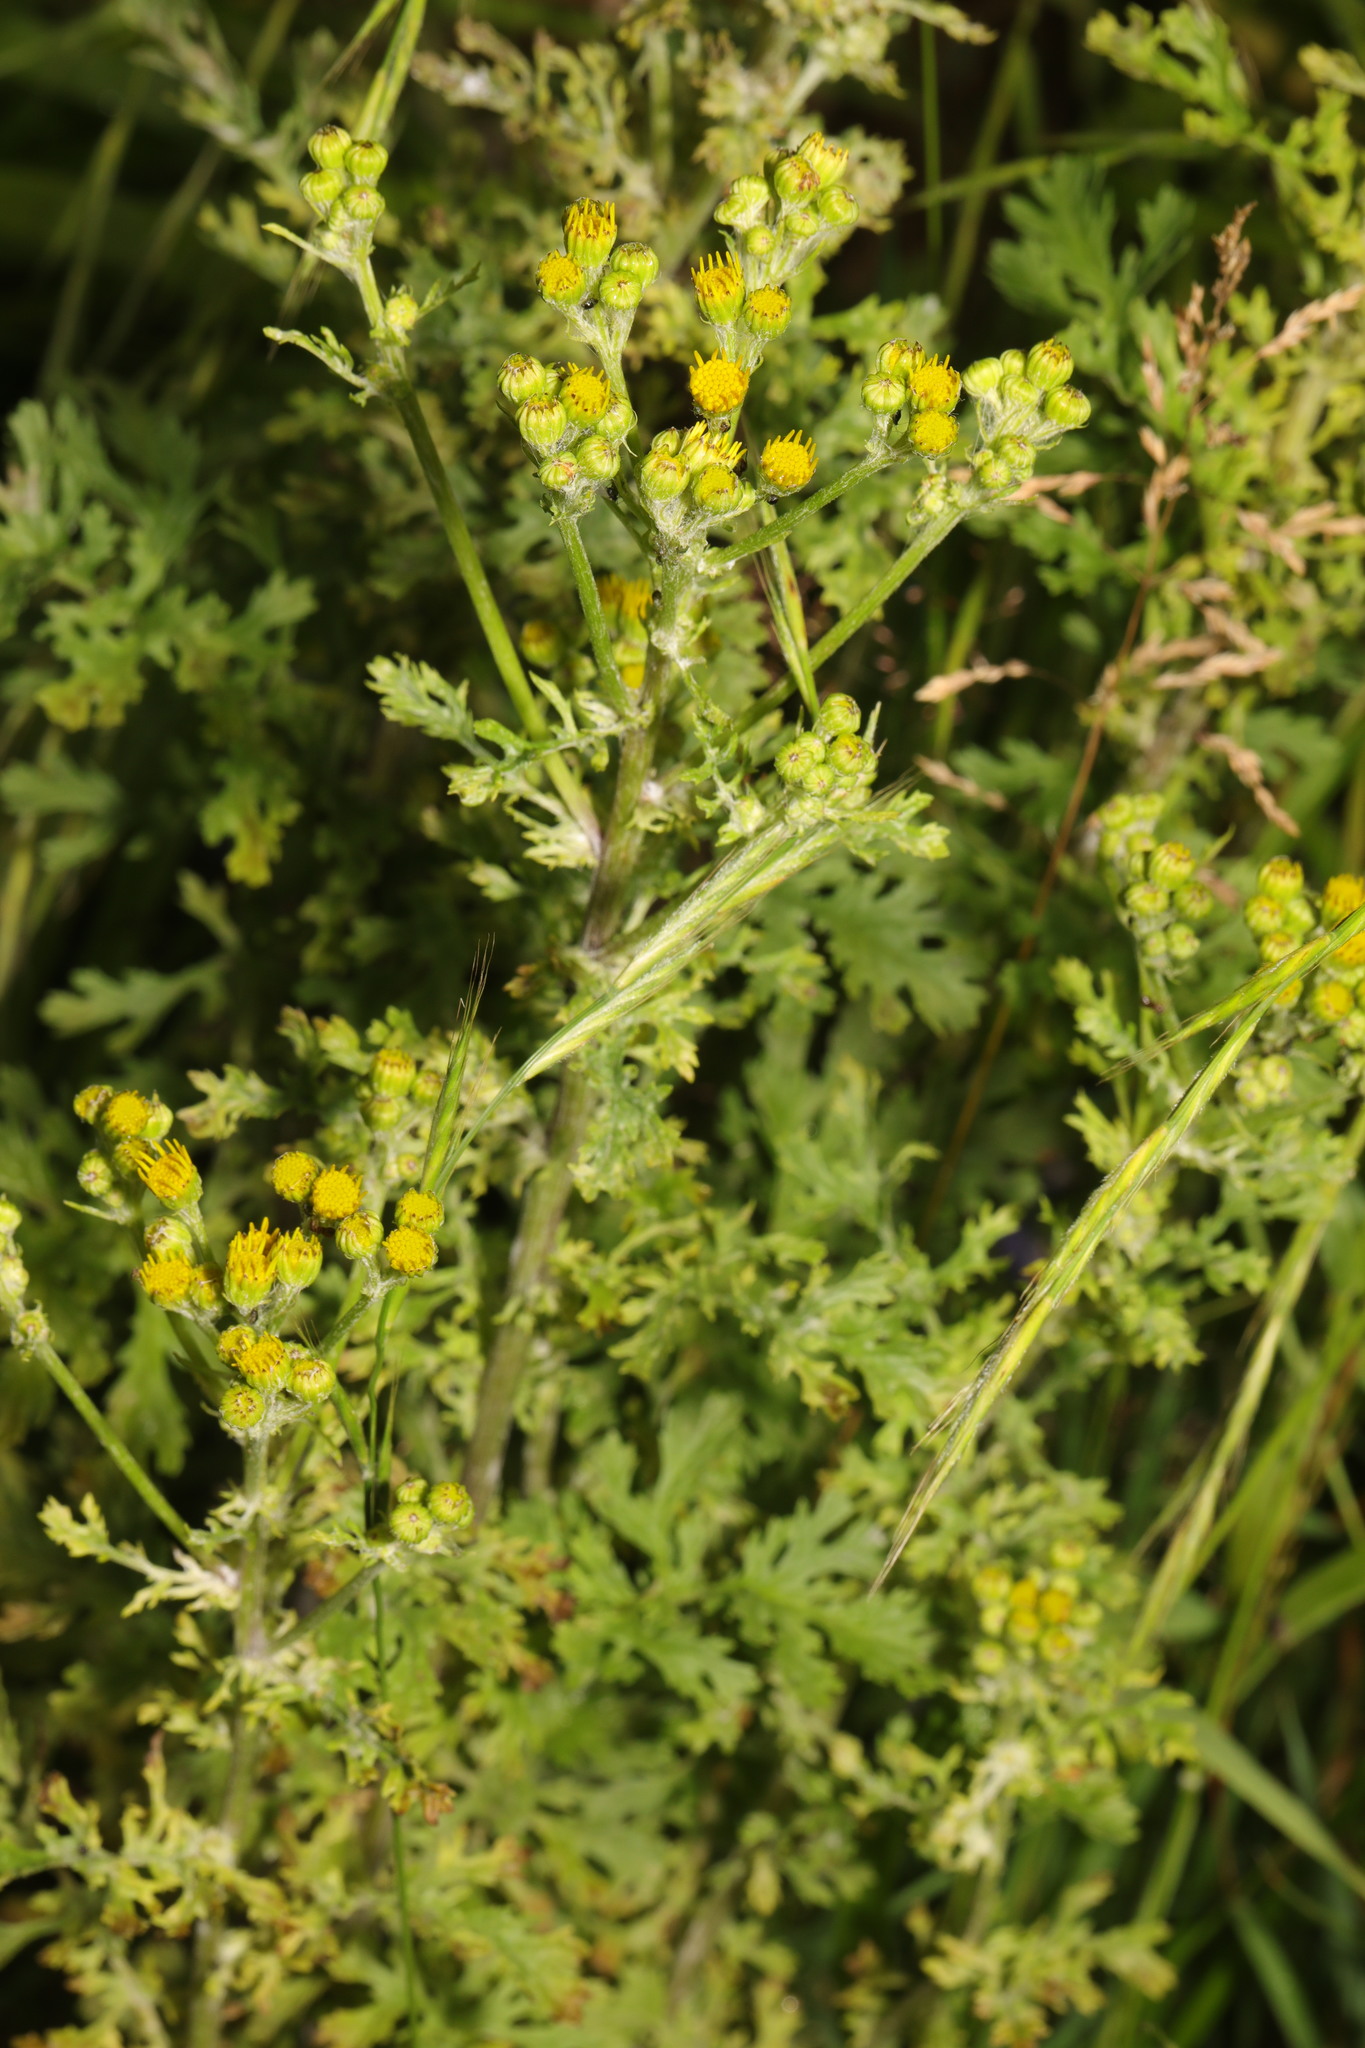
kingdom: Plantae
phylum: Tracheophyta
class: Magnoliopsida
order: Asterales
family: Asteraceae
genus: Jacobaea
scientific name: Jacobaea vulgaris
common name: Stinking willie
